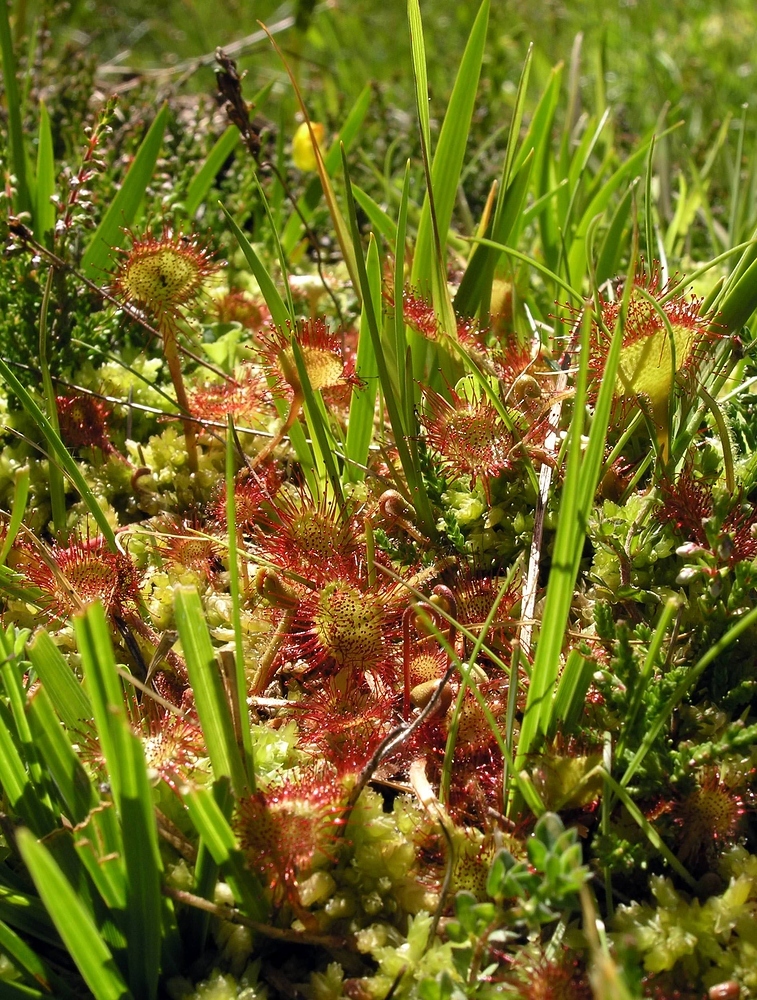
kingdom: Plantae
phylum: Tracheophyta
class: Magnoliopsida
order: Caryophyllales
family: Droseraceae
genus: Drosera
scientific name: Drosera rotundifolia
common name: Round-leaved sundew
